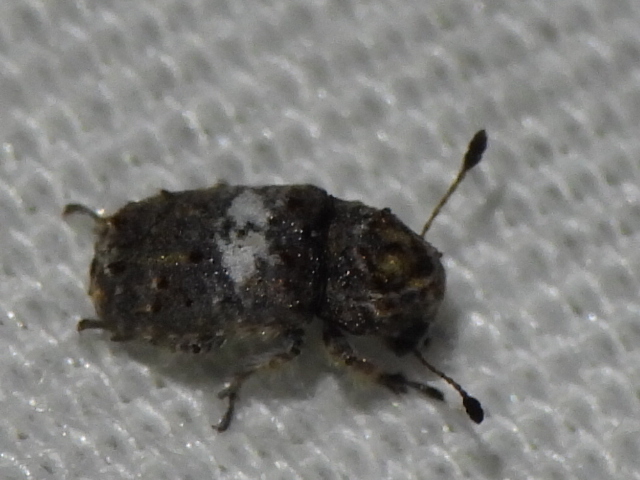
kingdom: Animalia
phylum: Arthropoda
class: Insecta
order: Coleoptera
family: Anthribidae
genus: Toxonotus
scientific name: Toxonotus cornutus
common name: Fungus weevil
